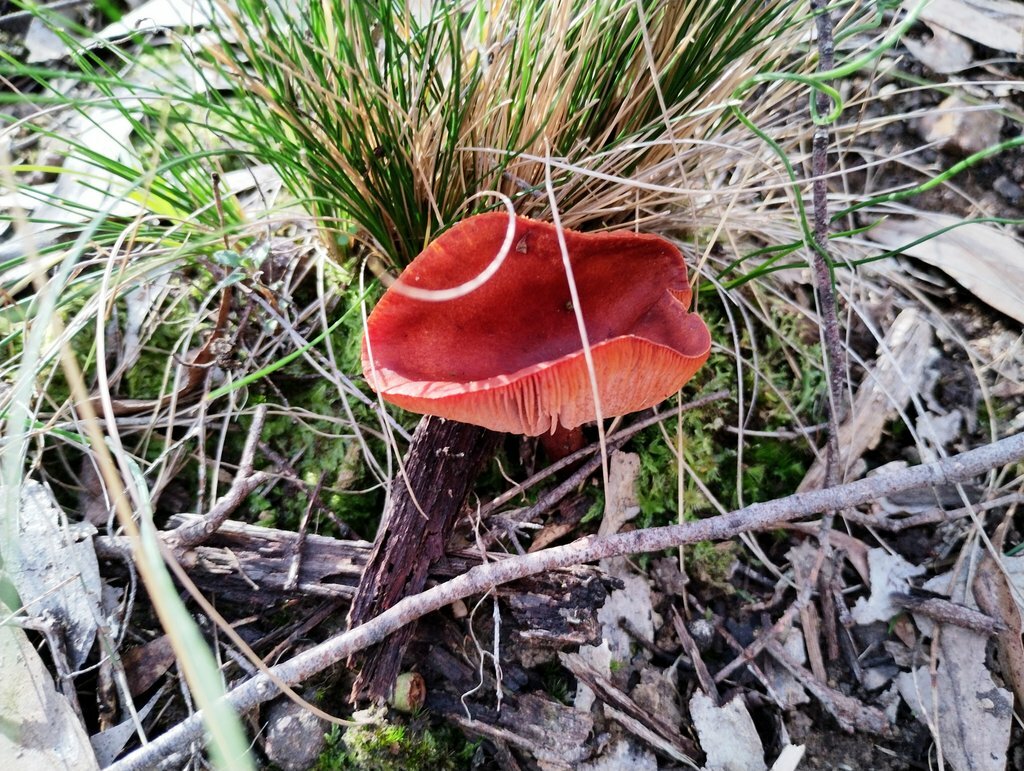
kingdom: Fungi
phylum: Basidiomycota
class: Agaricomycetes
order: Russulales
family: Russulaceae
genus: Lactarius
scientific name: Lactarius eucalypti
